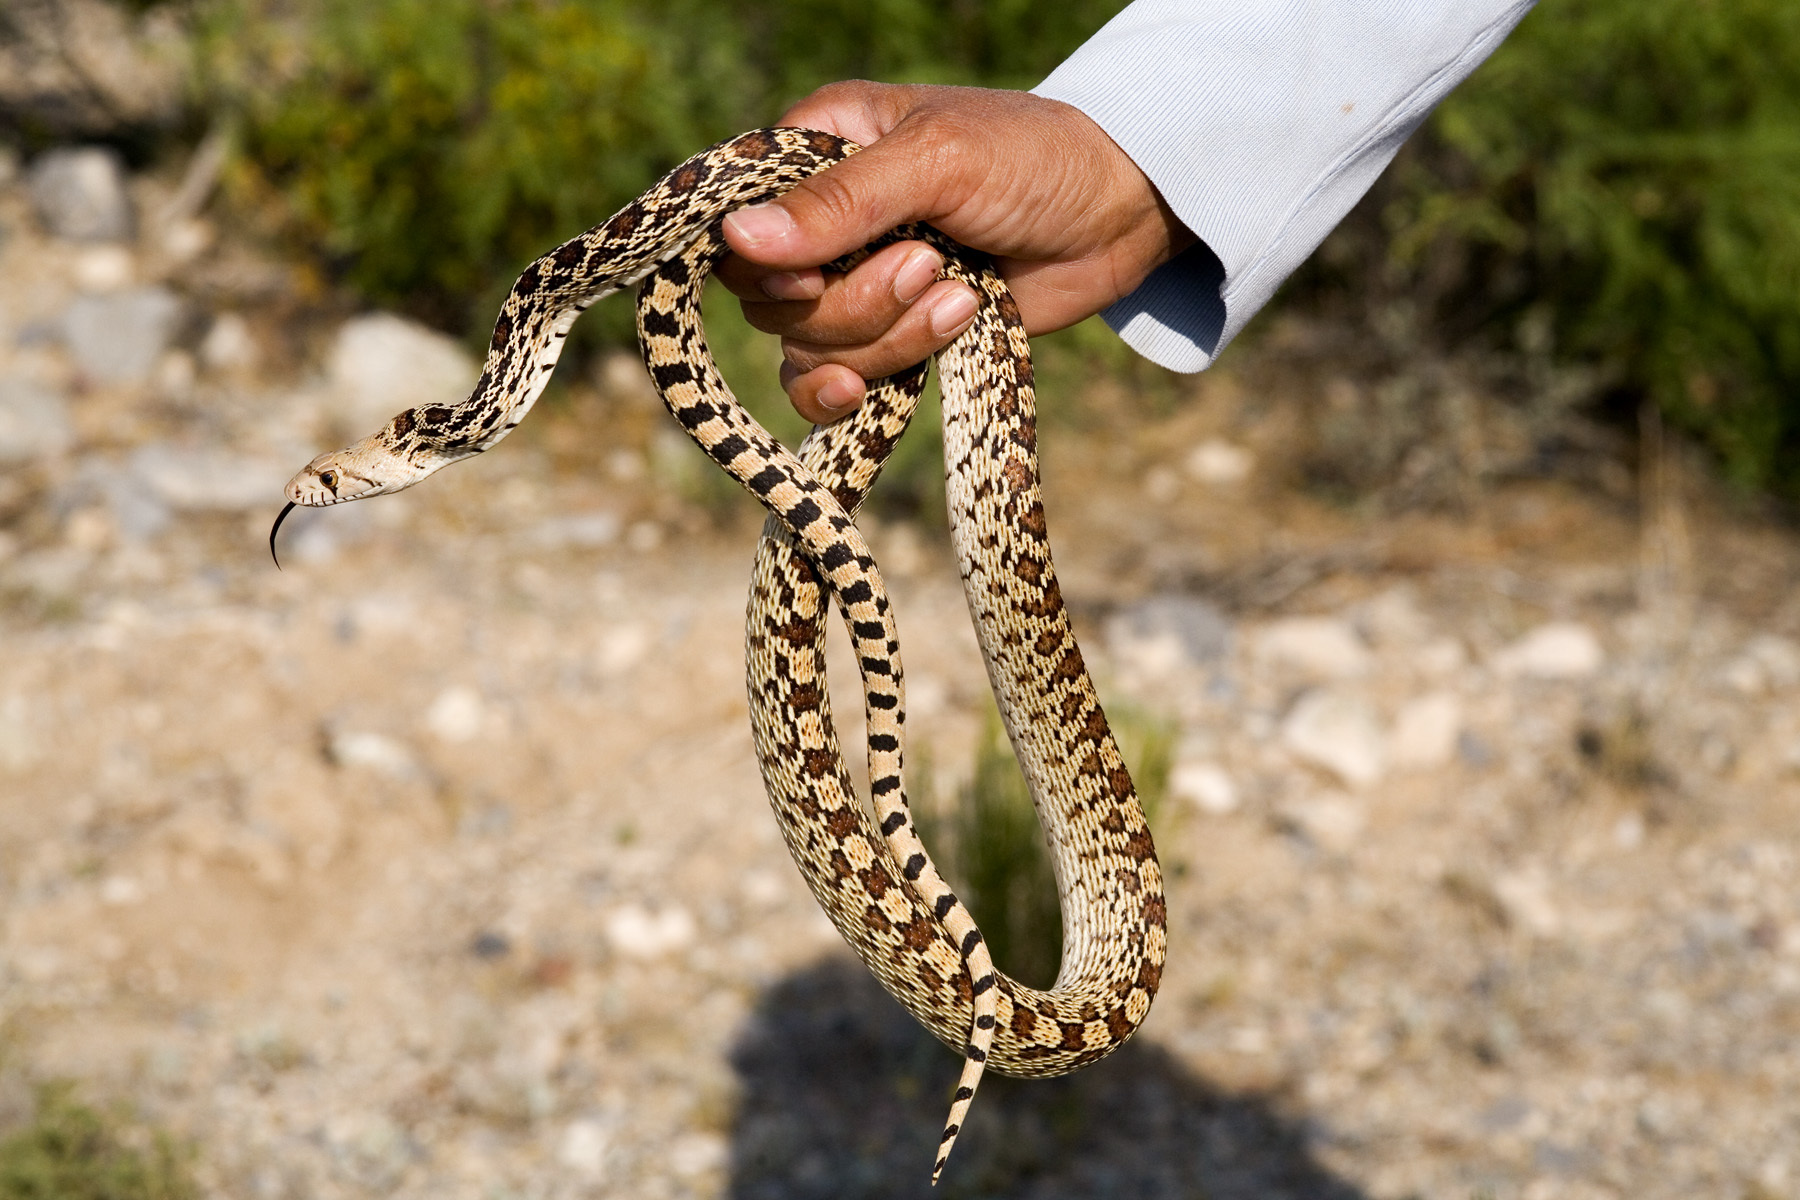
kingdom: Animalia
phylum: Chordata
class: Squamata
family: Colubridae
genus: Pituophis
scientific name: Pituophis catenifer
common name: Gopher snake
